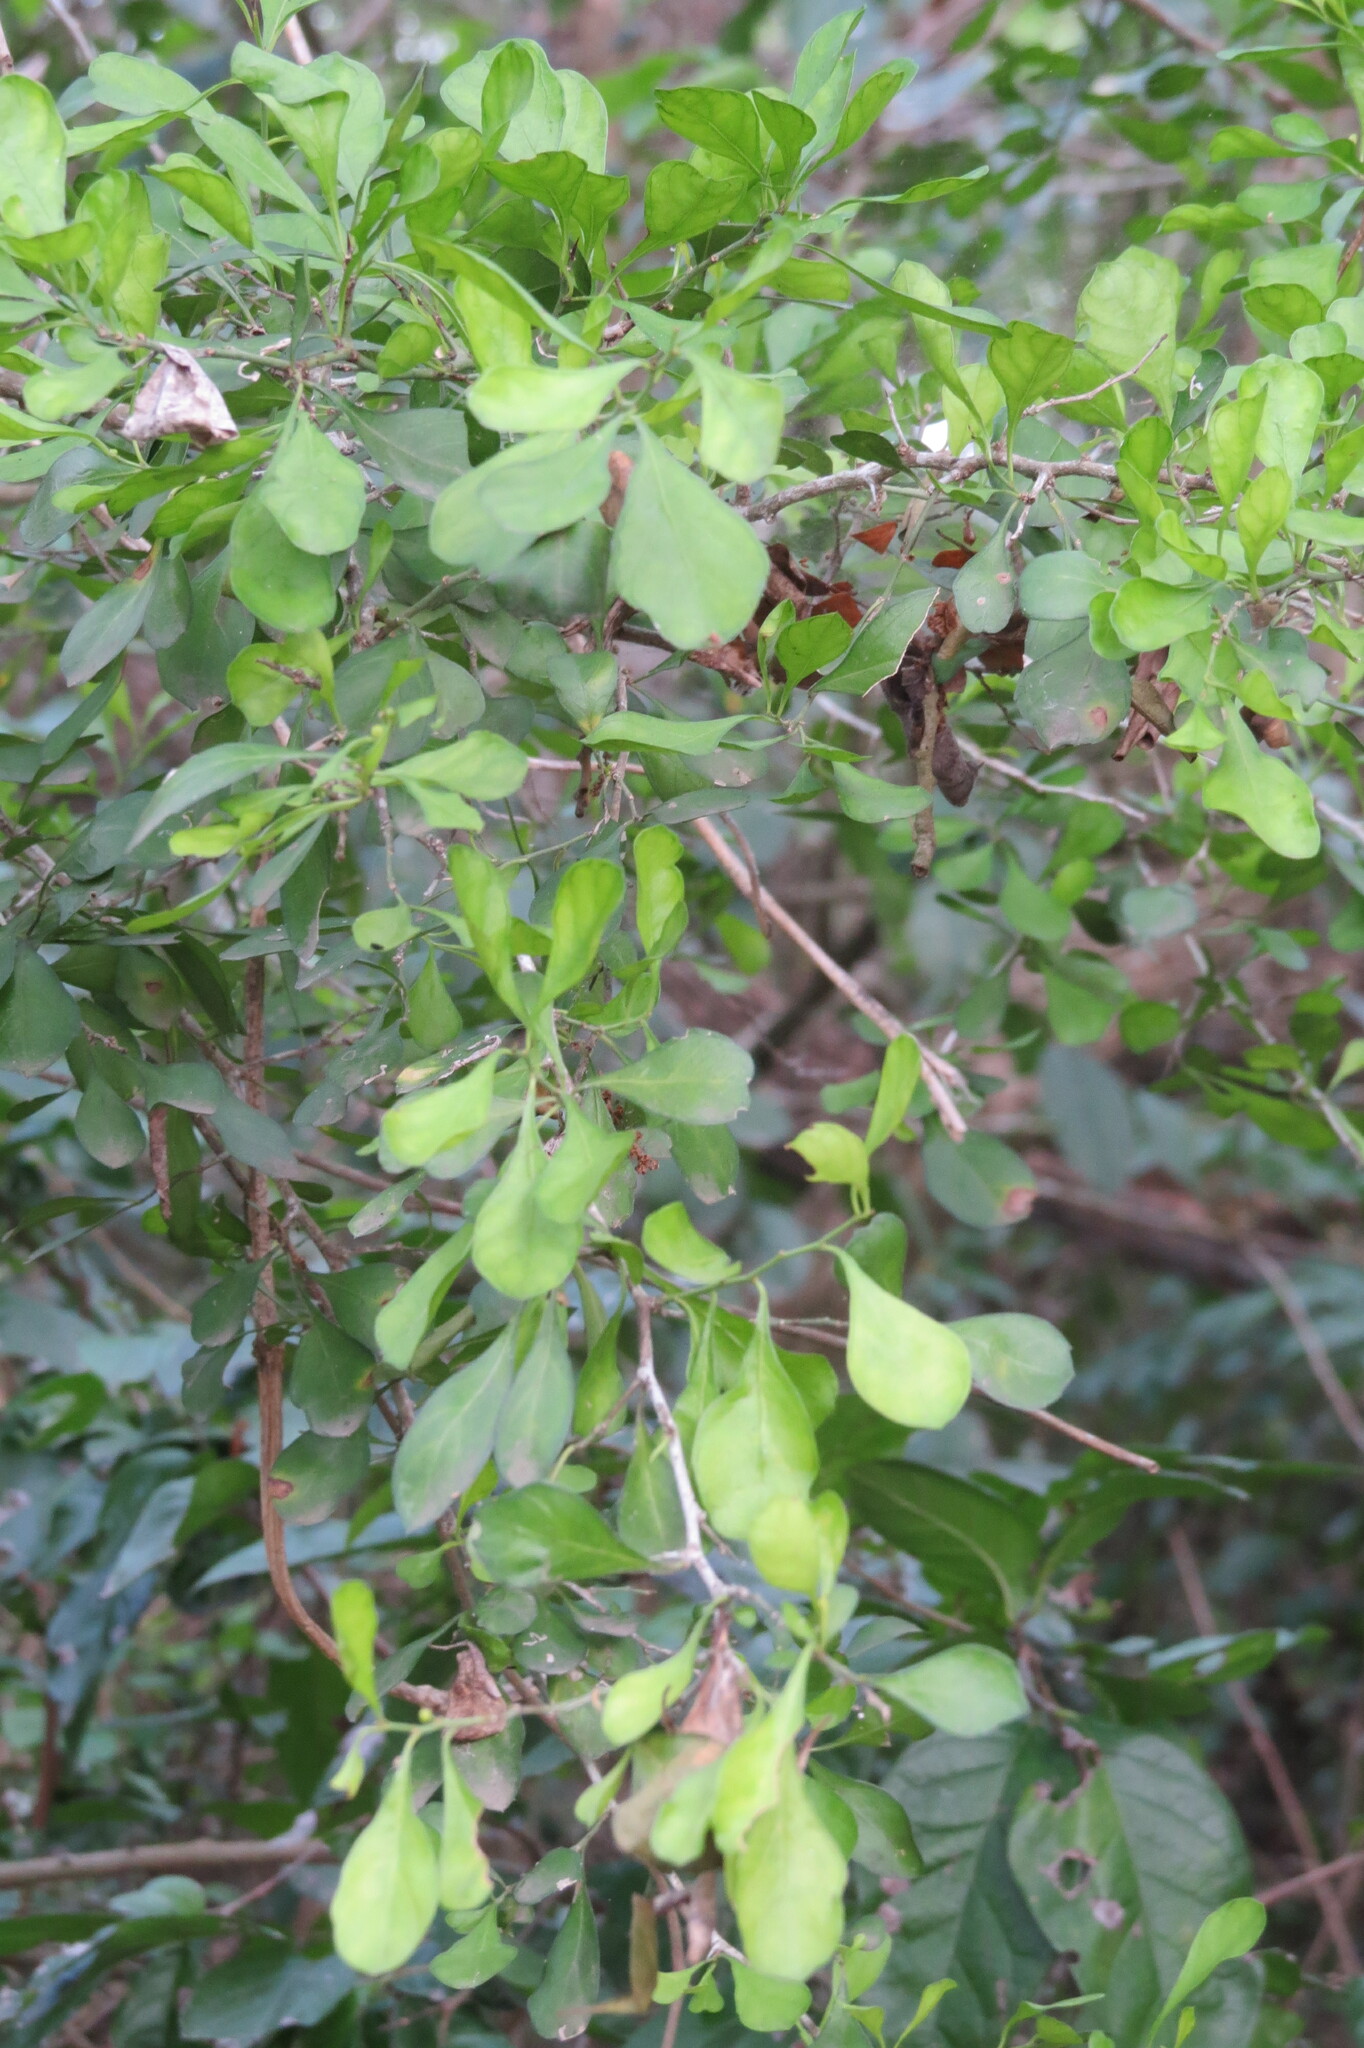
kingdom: Plantae
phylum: Tracheophyta
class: Magnoliopsida
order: Rosales
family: Rhamnaceae
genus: Condalia
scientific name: Condalia hookeri
